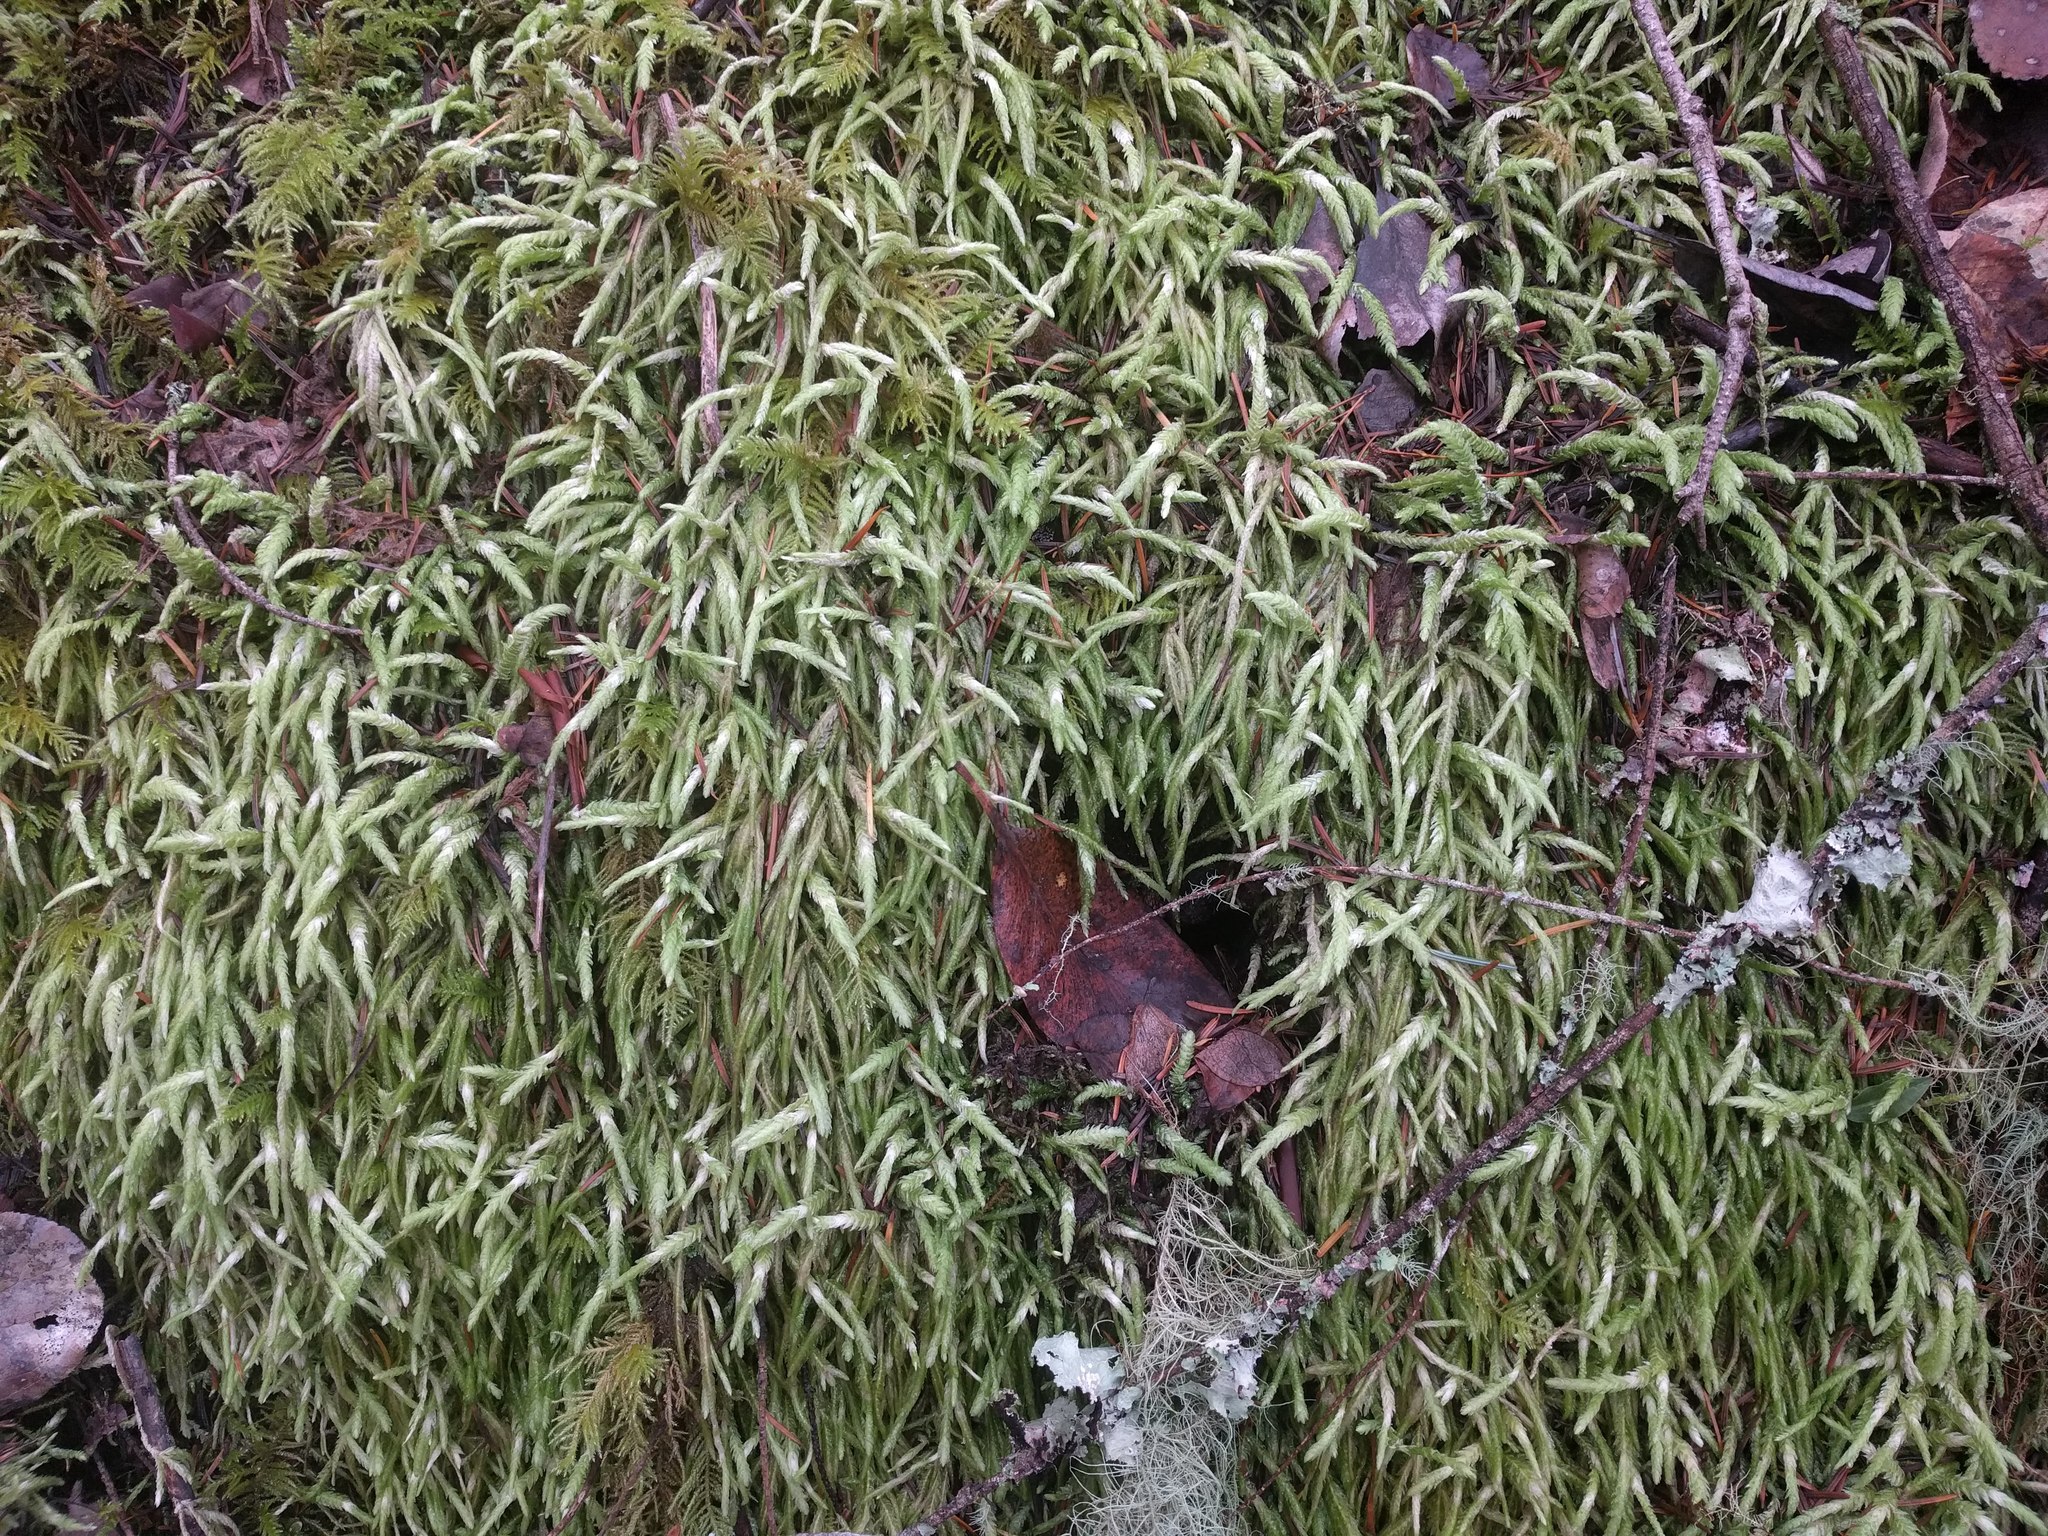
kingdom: Plantae
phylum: Bryophyta
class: Bryopsida
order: Hypnales
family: Plagiotheciaceae
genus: Plagiothecium
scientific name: Plagiothecium undulatum
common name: Waved silk-moss
